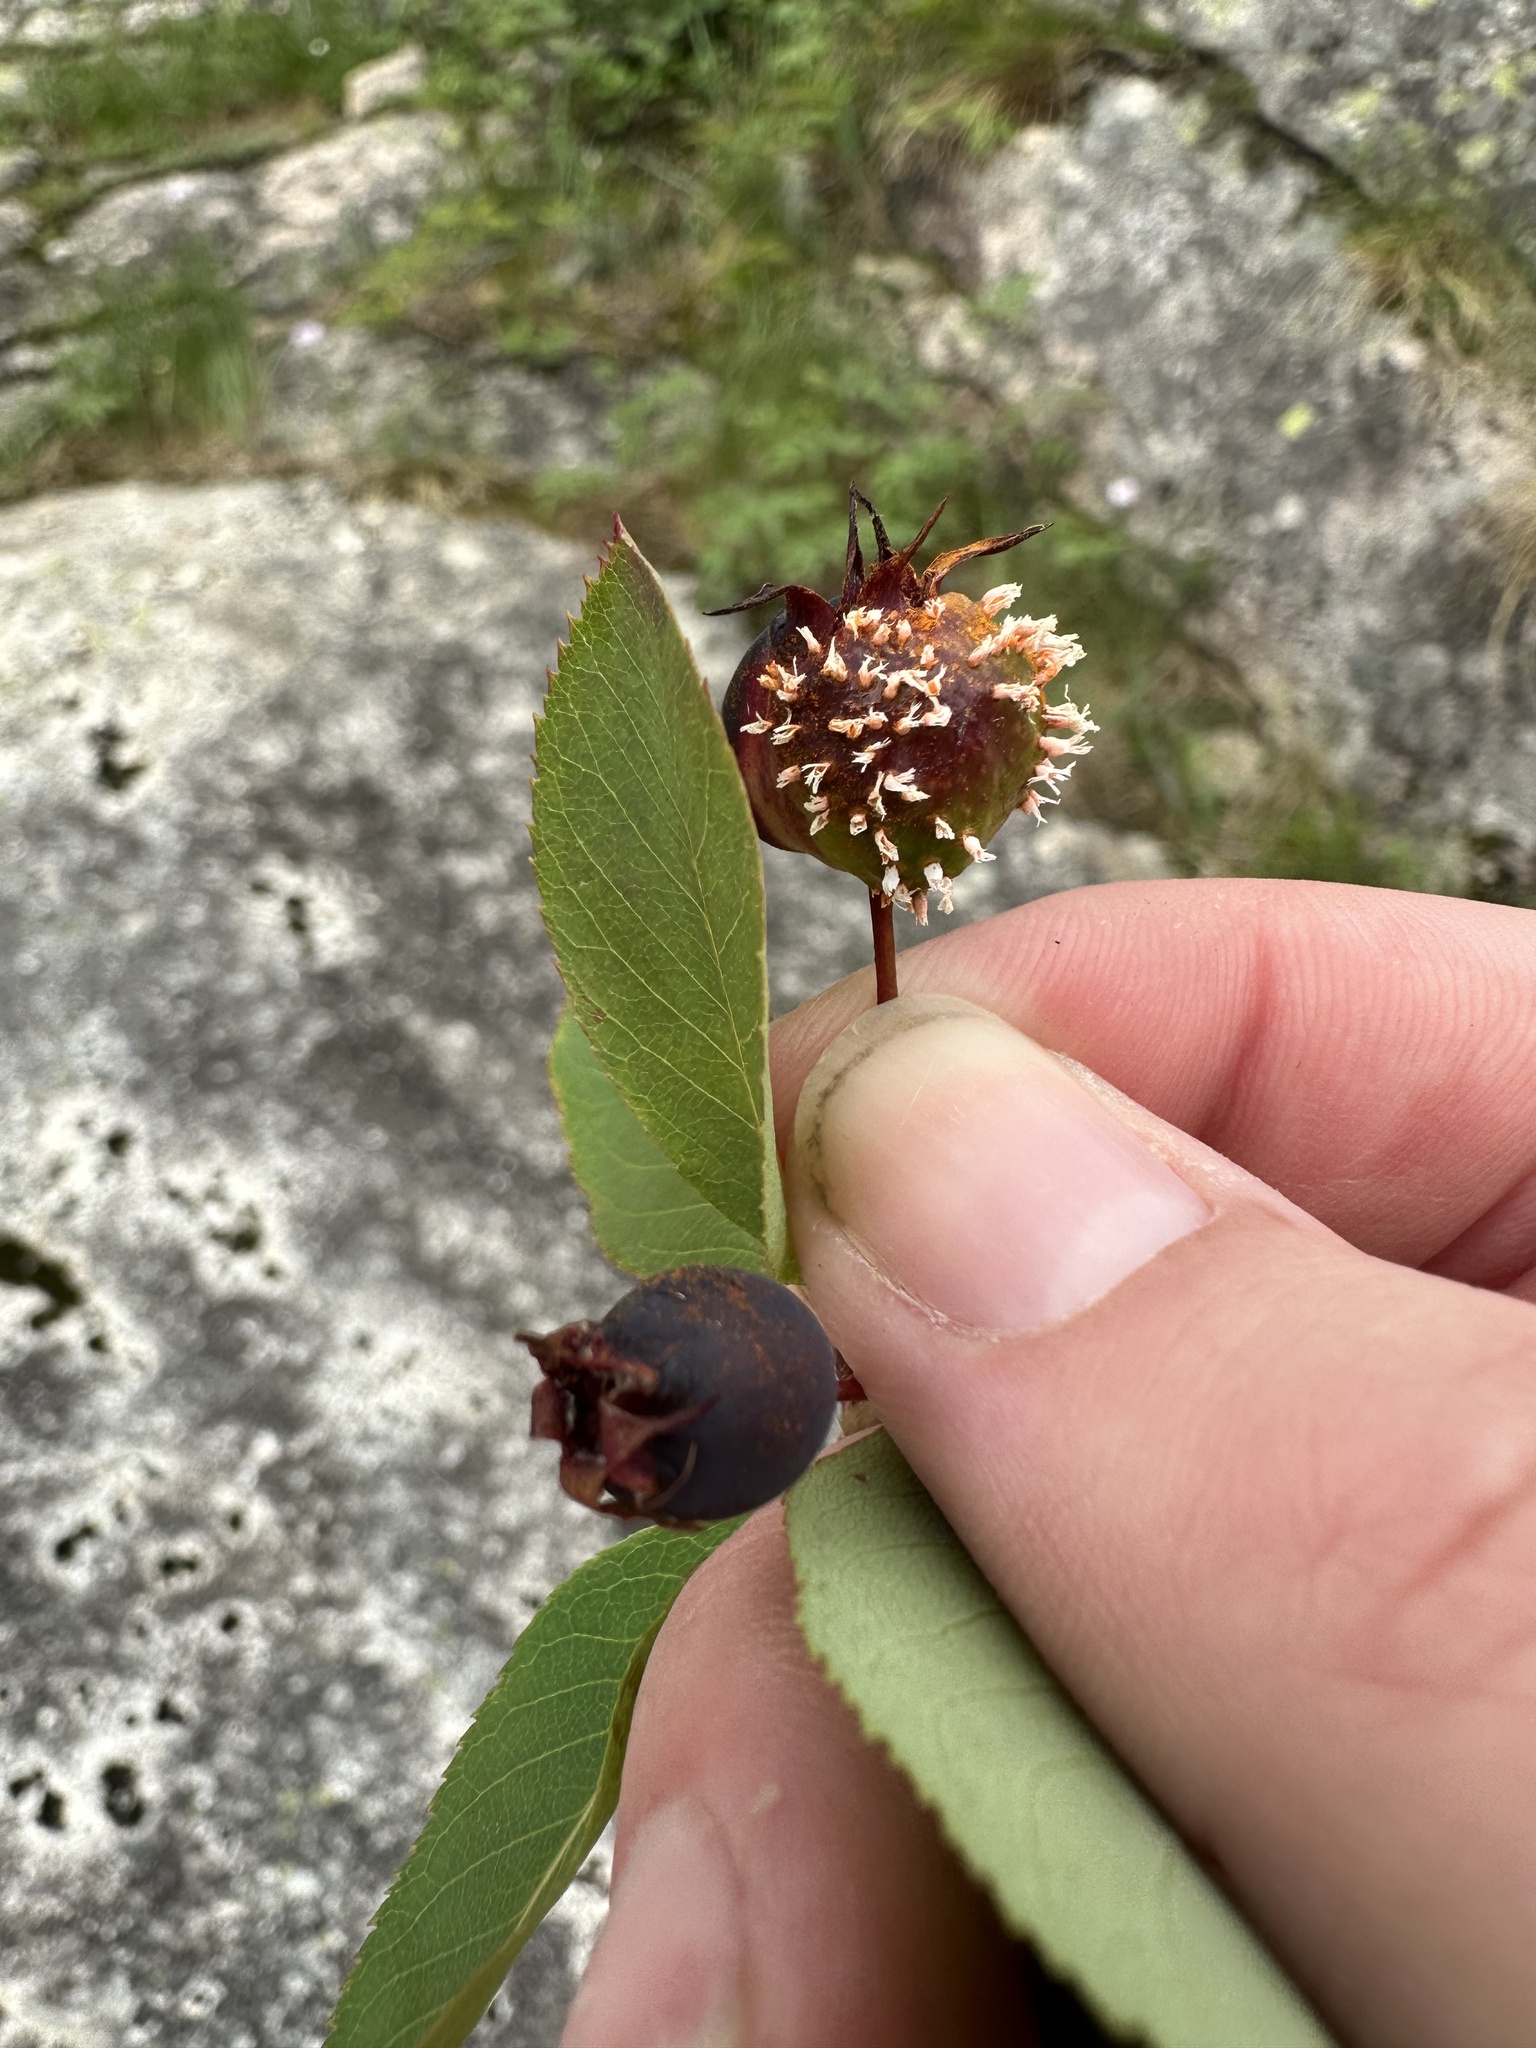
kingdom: Fungi
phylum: Basidiomycota
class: Pucciniomycetes
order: Pucciniales
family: Gymnosporangiaceae
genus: Gymnosporangium
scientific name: Gymnosporangium clavipes
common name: Quince rust
